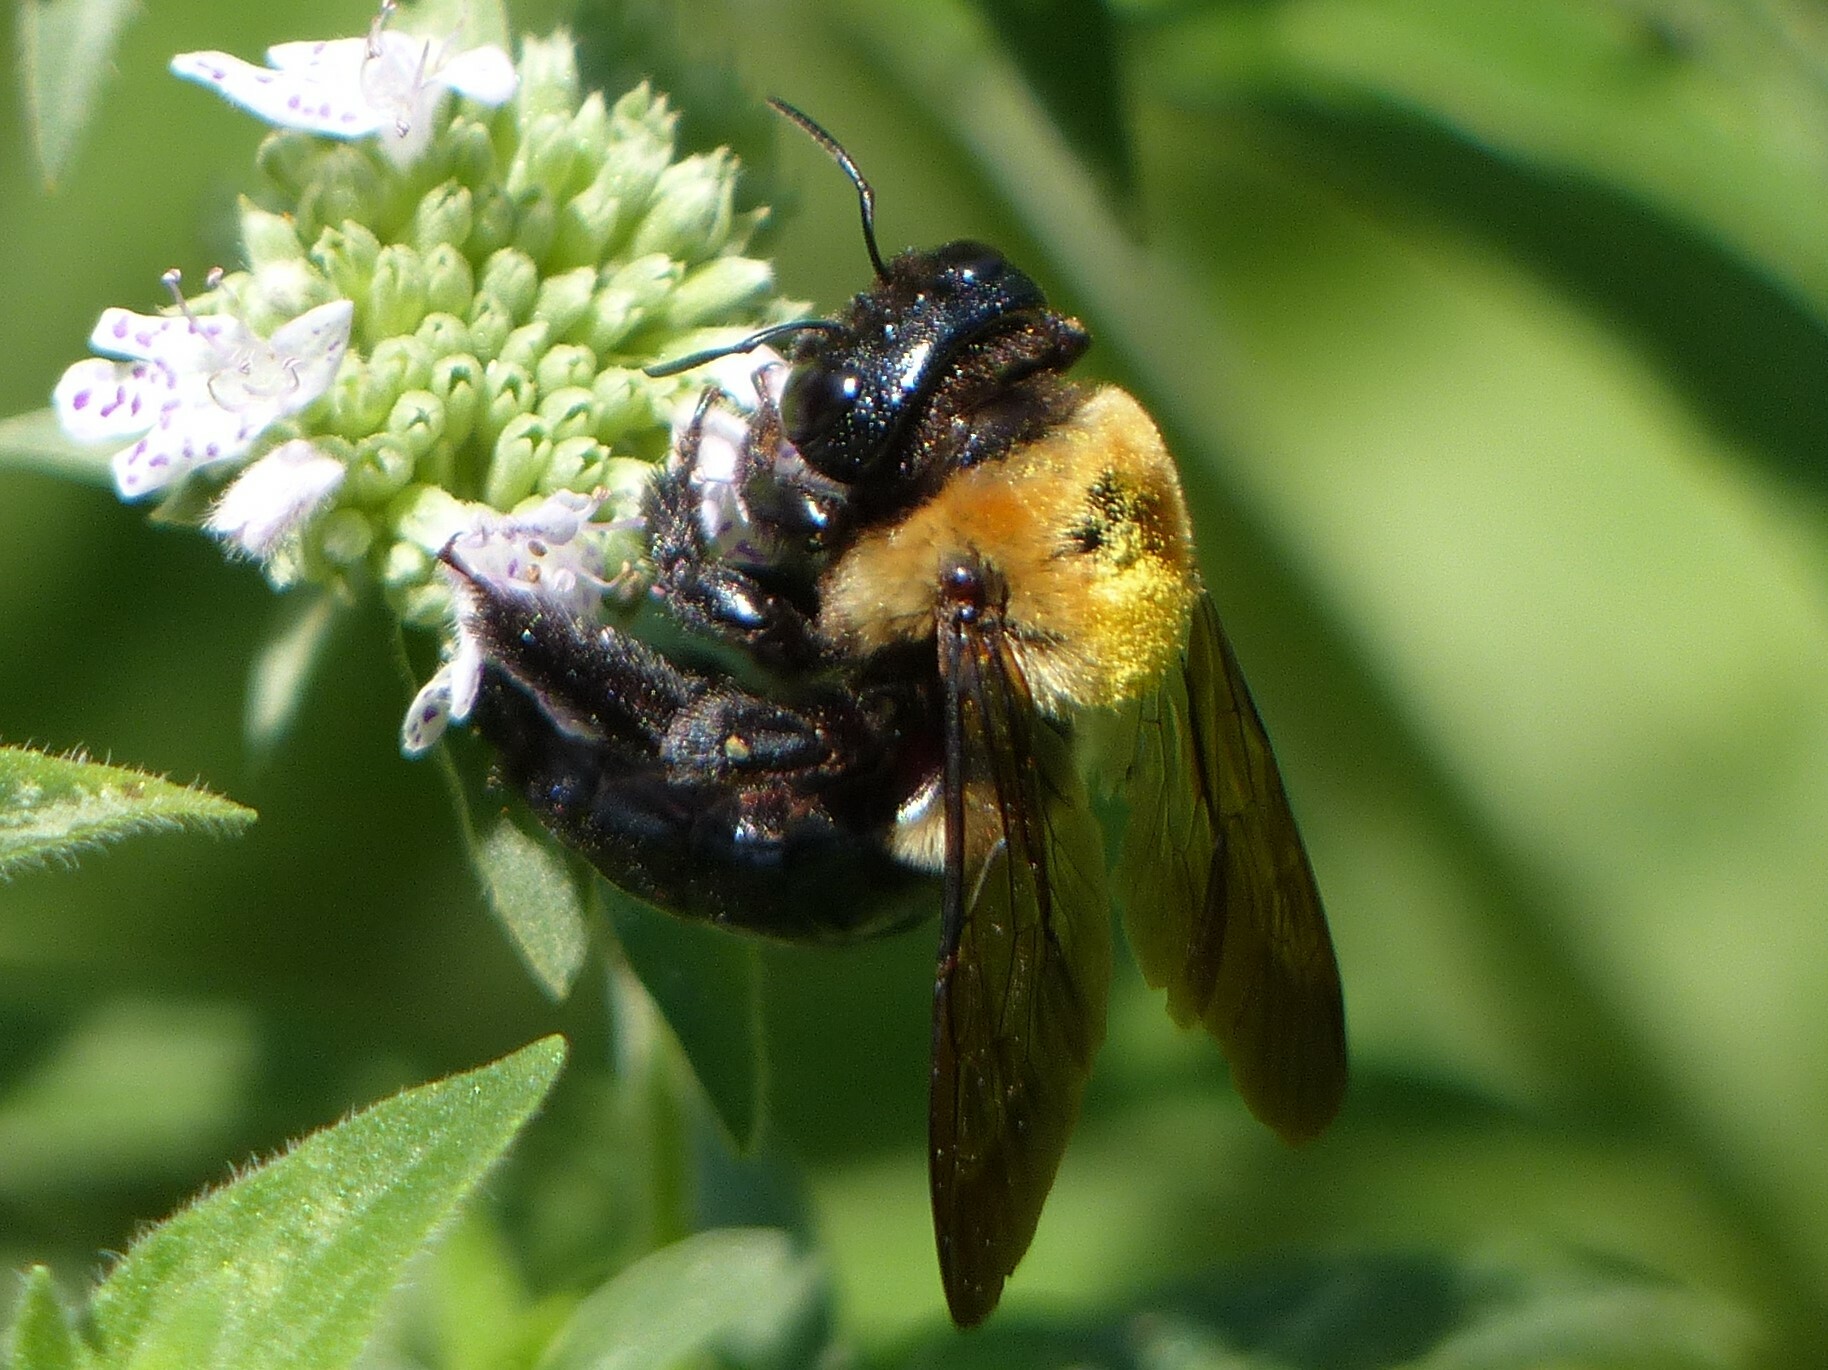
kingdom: Animalia
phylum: Arthropoda
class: Insecta
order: Hymenoptera
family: Apidae
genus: Xylocopa
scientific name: Xylocopa virginica
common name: Carpenter bee
